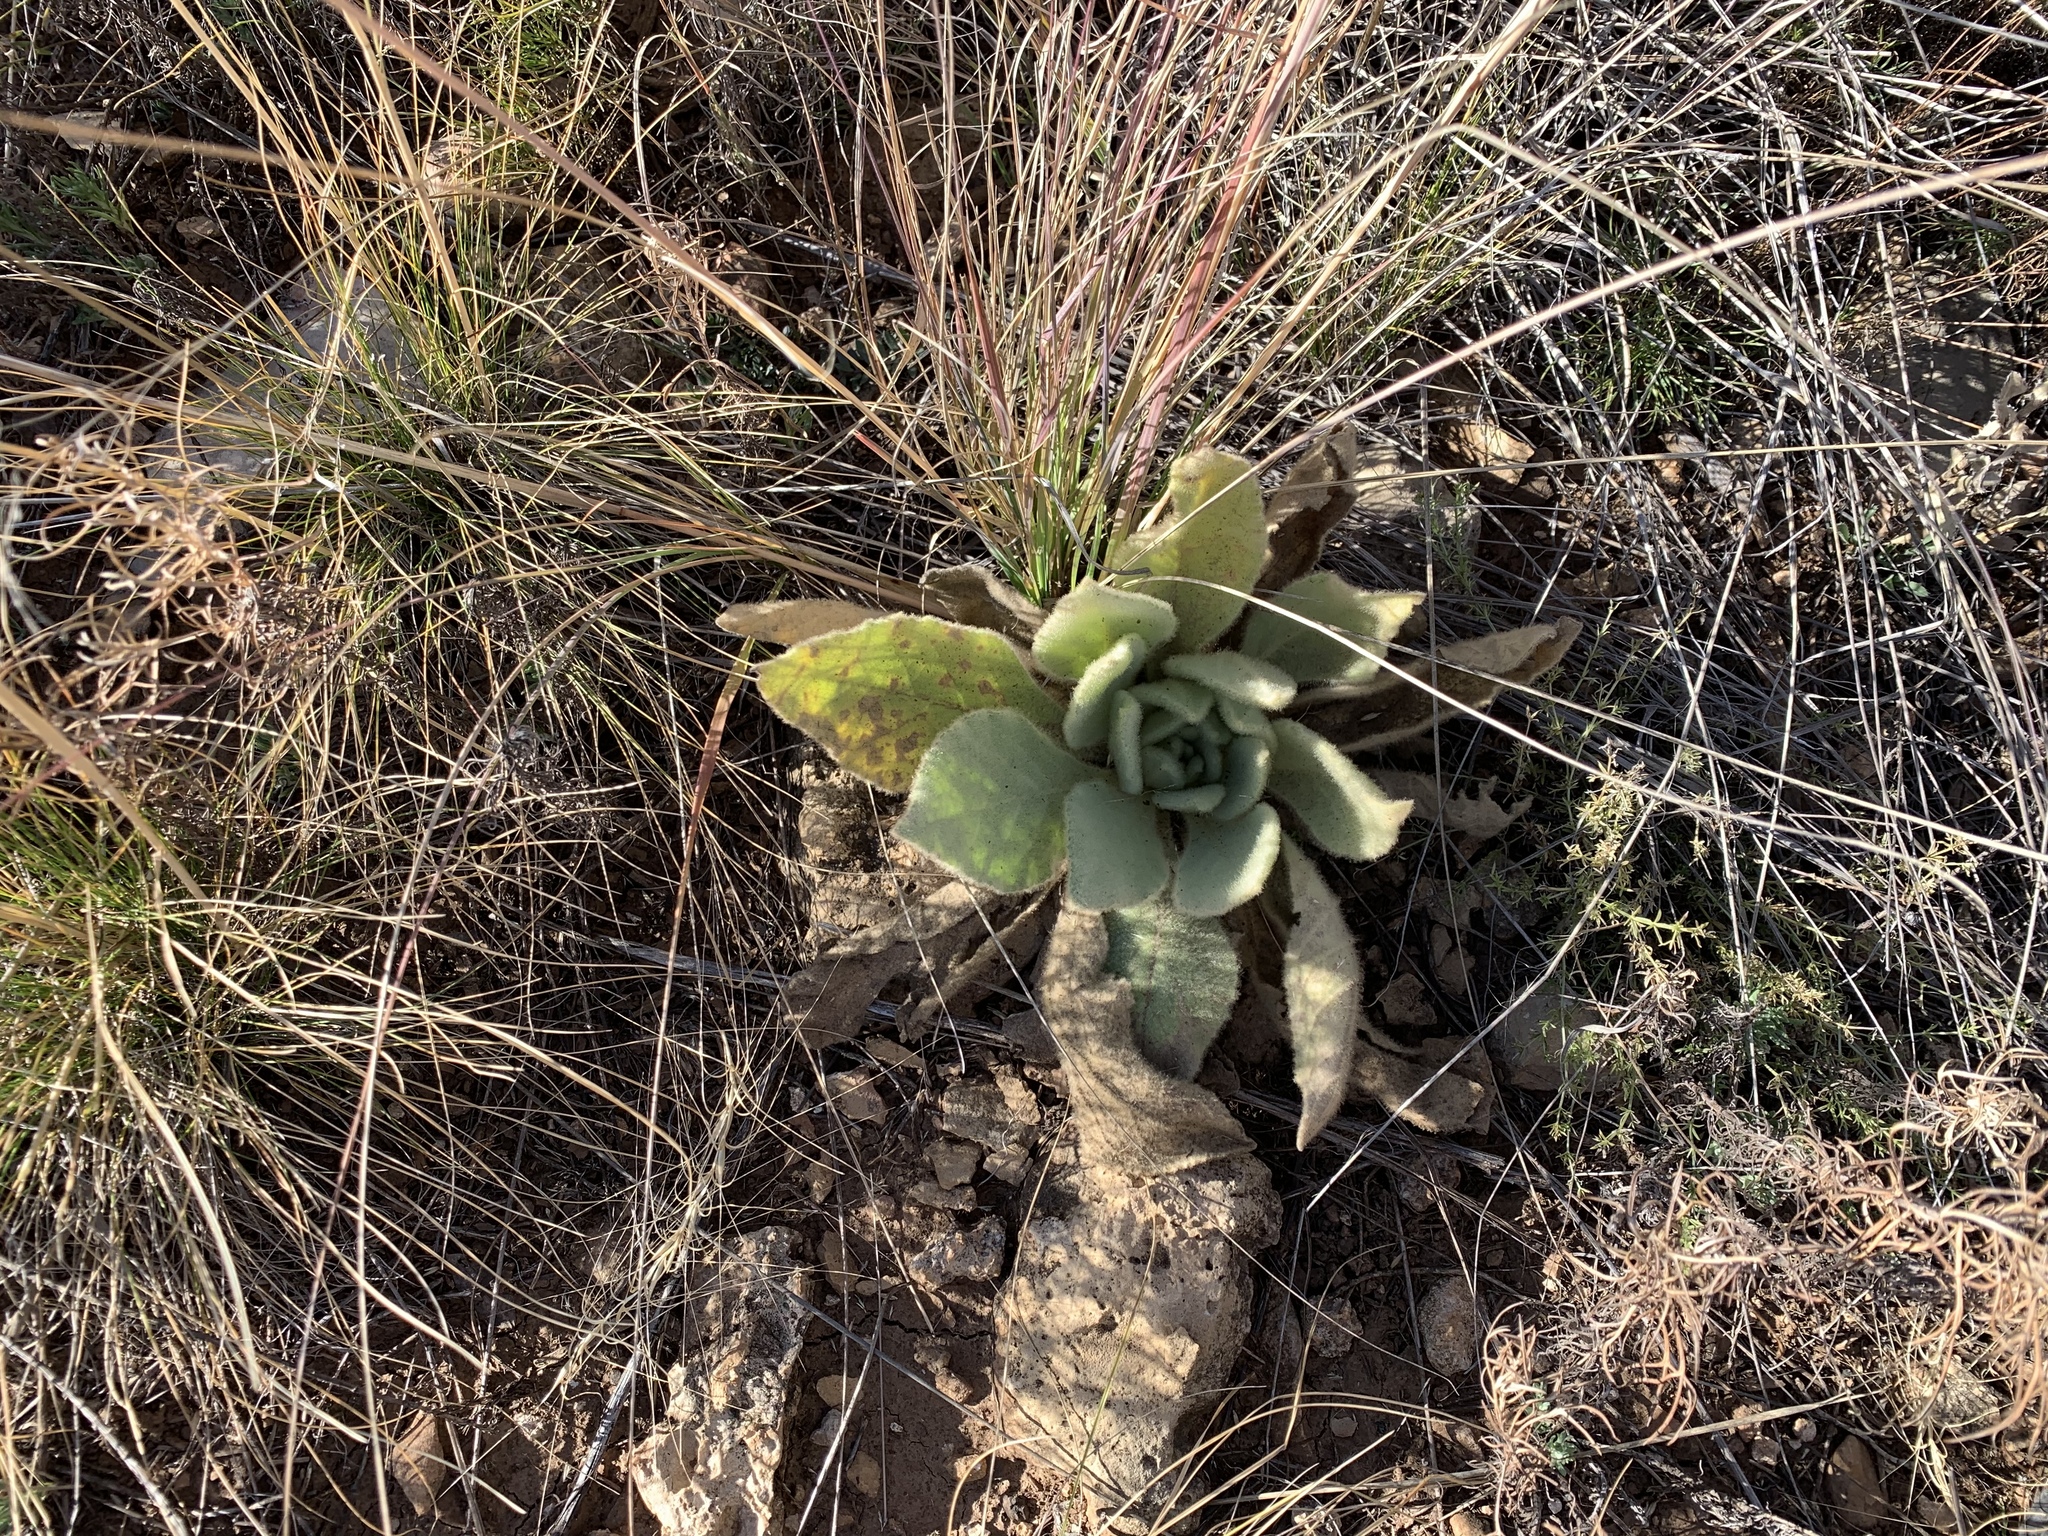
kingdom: Plantae
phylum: Tracheophyta
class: Magnoliopsida
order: Lamiales
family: Scrophulariaceae
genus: Verbascum
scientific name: Verbascum thapsus
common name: Common mullein
